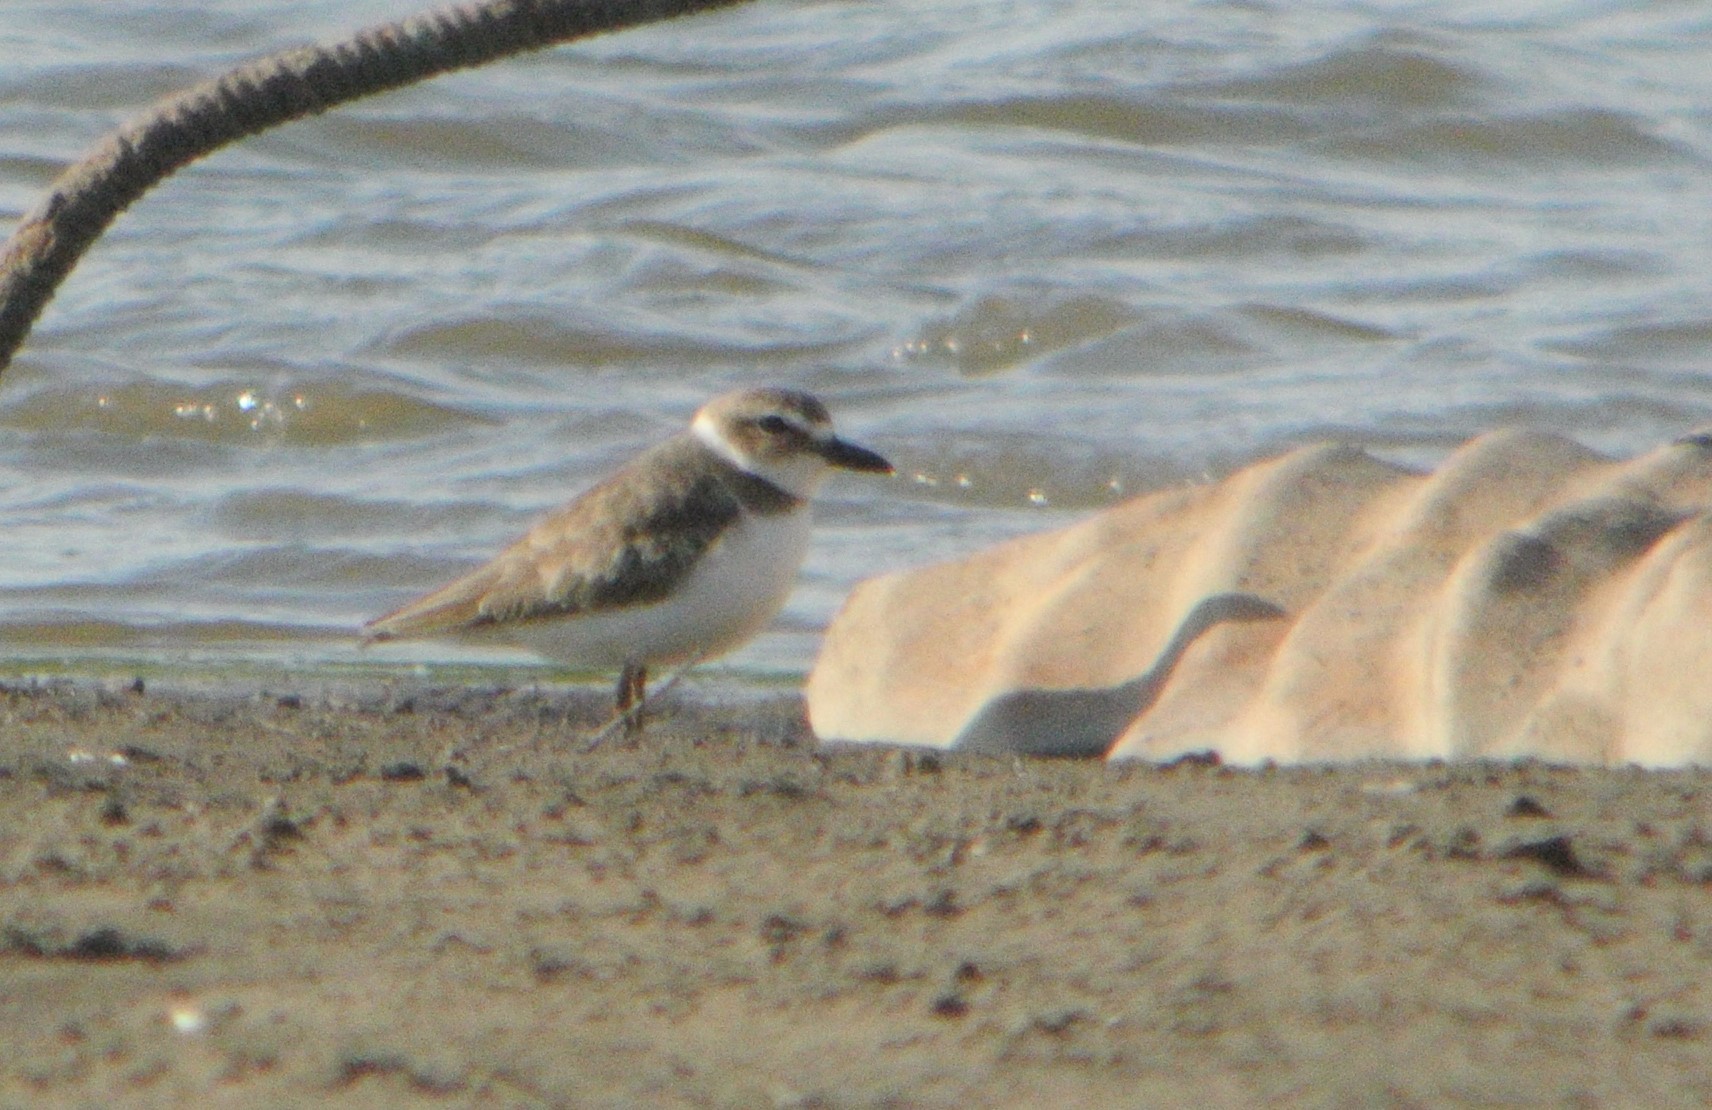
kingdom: Animalia
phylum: Chordata
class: Aves
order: Charadriiformes
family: Charadriidae
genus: Anarhynchus
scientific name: Anarhynchus
